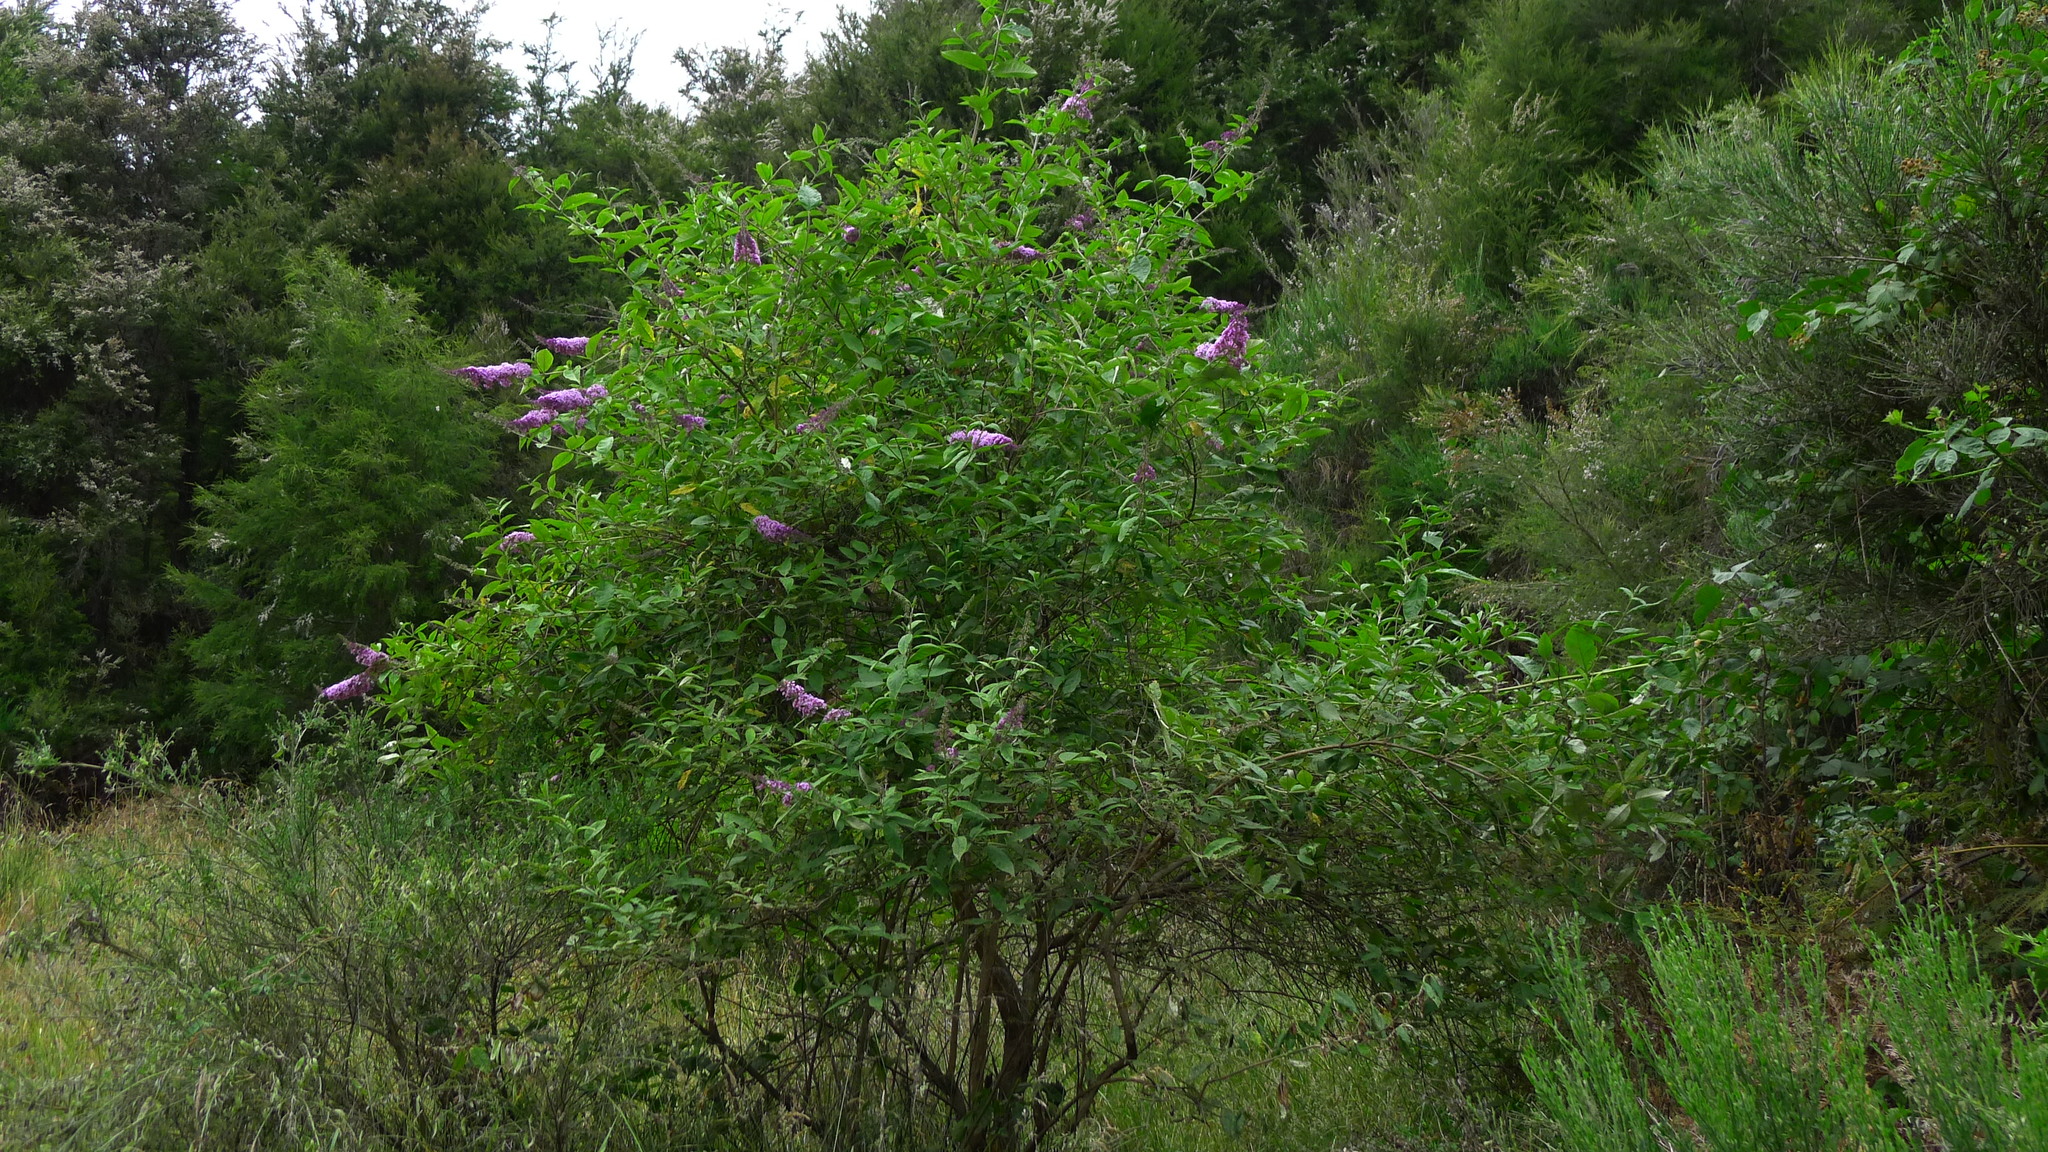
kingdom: Plantae
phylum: Tracheophyta
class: Magnoliopsida
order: Lamiales
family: Scrophulariaceae
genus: Buddleja
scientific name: Buddleja davidii
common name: Butterfly-bush
